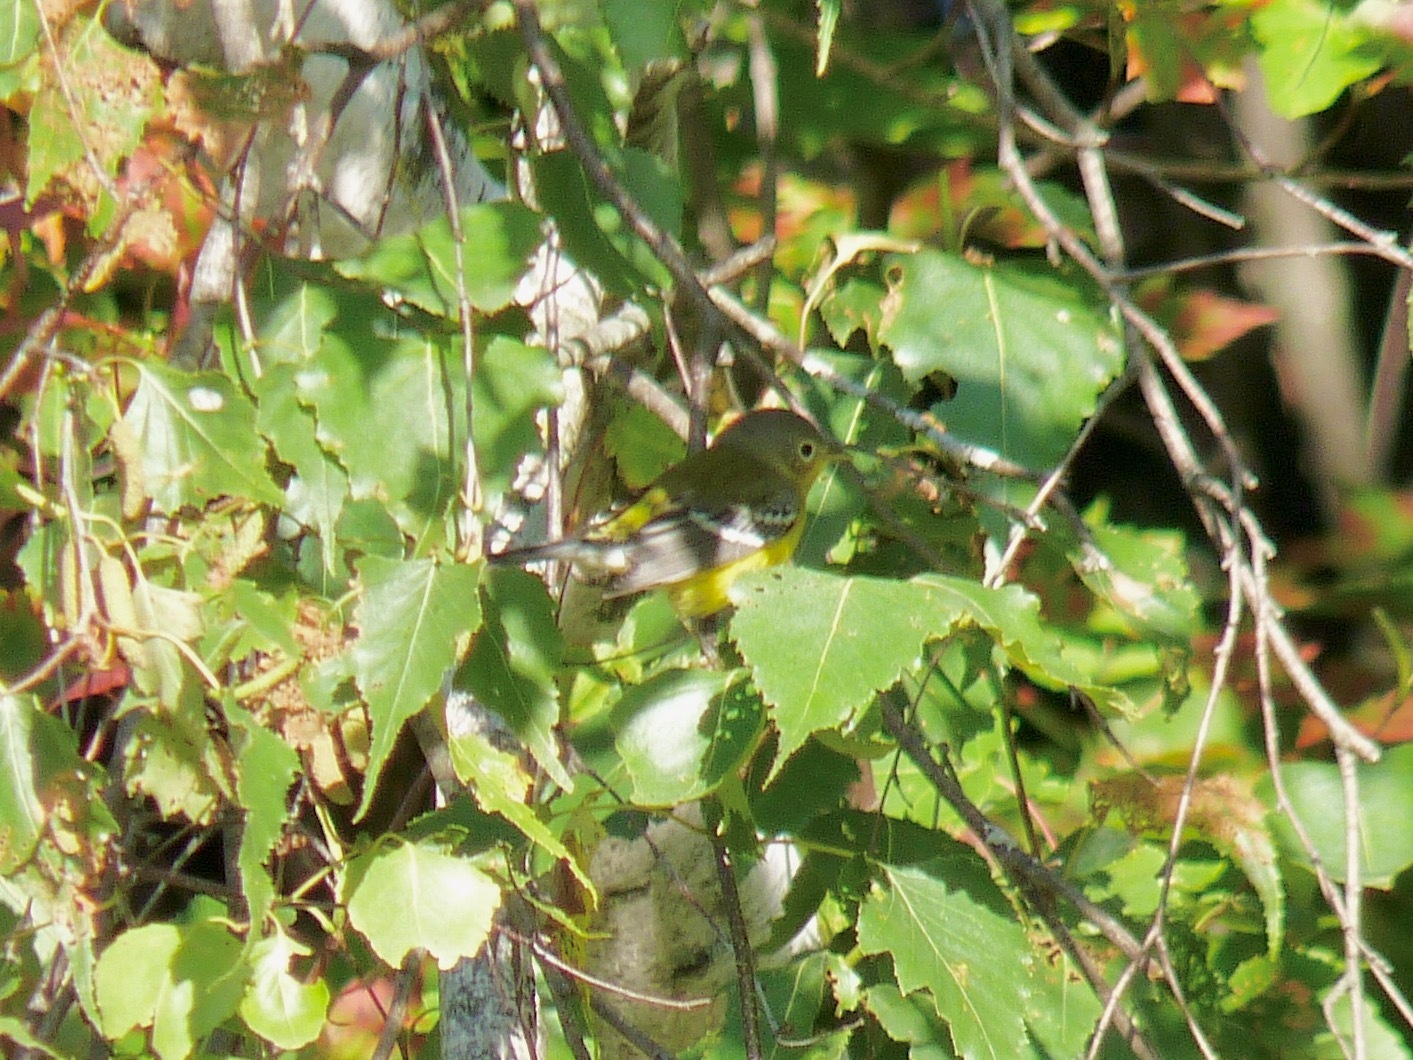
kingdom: Animalia
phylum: Chordata
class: Aves
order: Passeriformes
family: Parulidae
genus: Setophaga
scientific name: Setophaga magnolia
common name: Magnolia warbler
